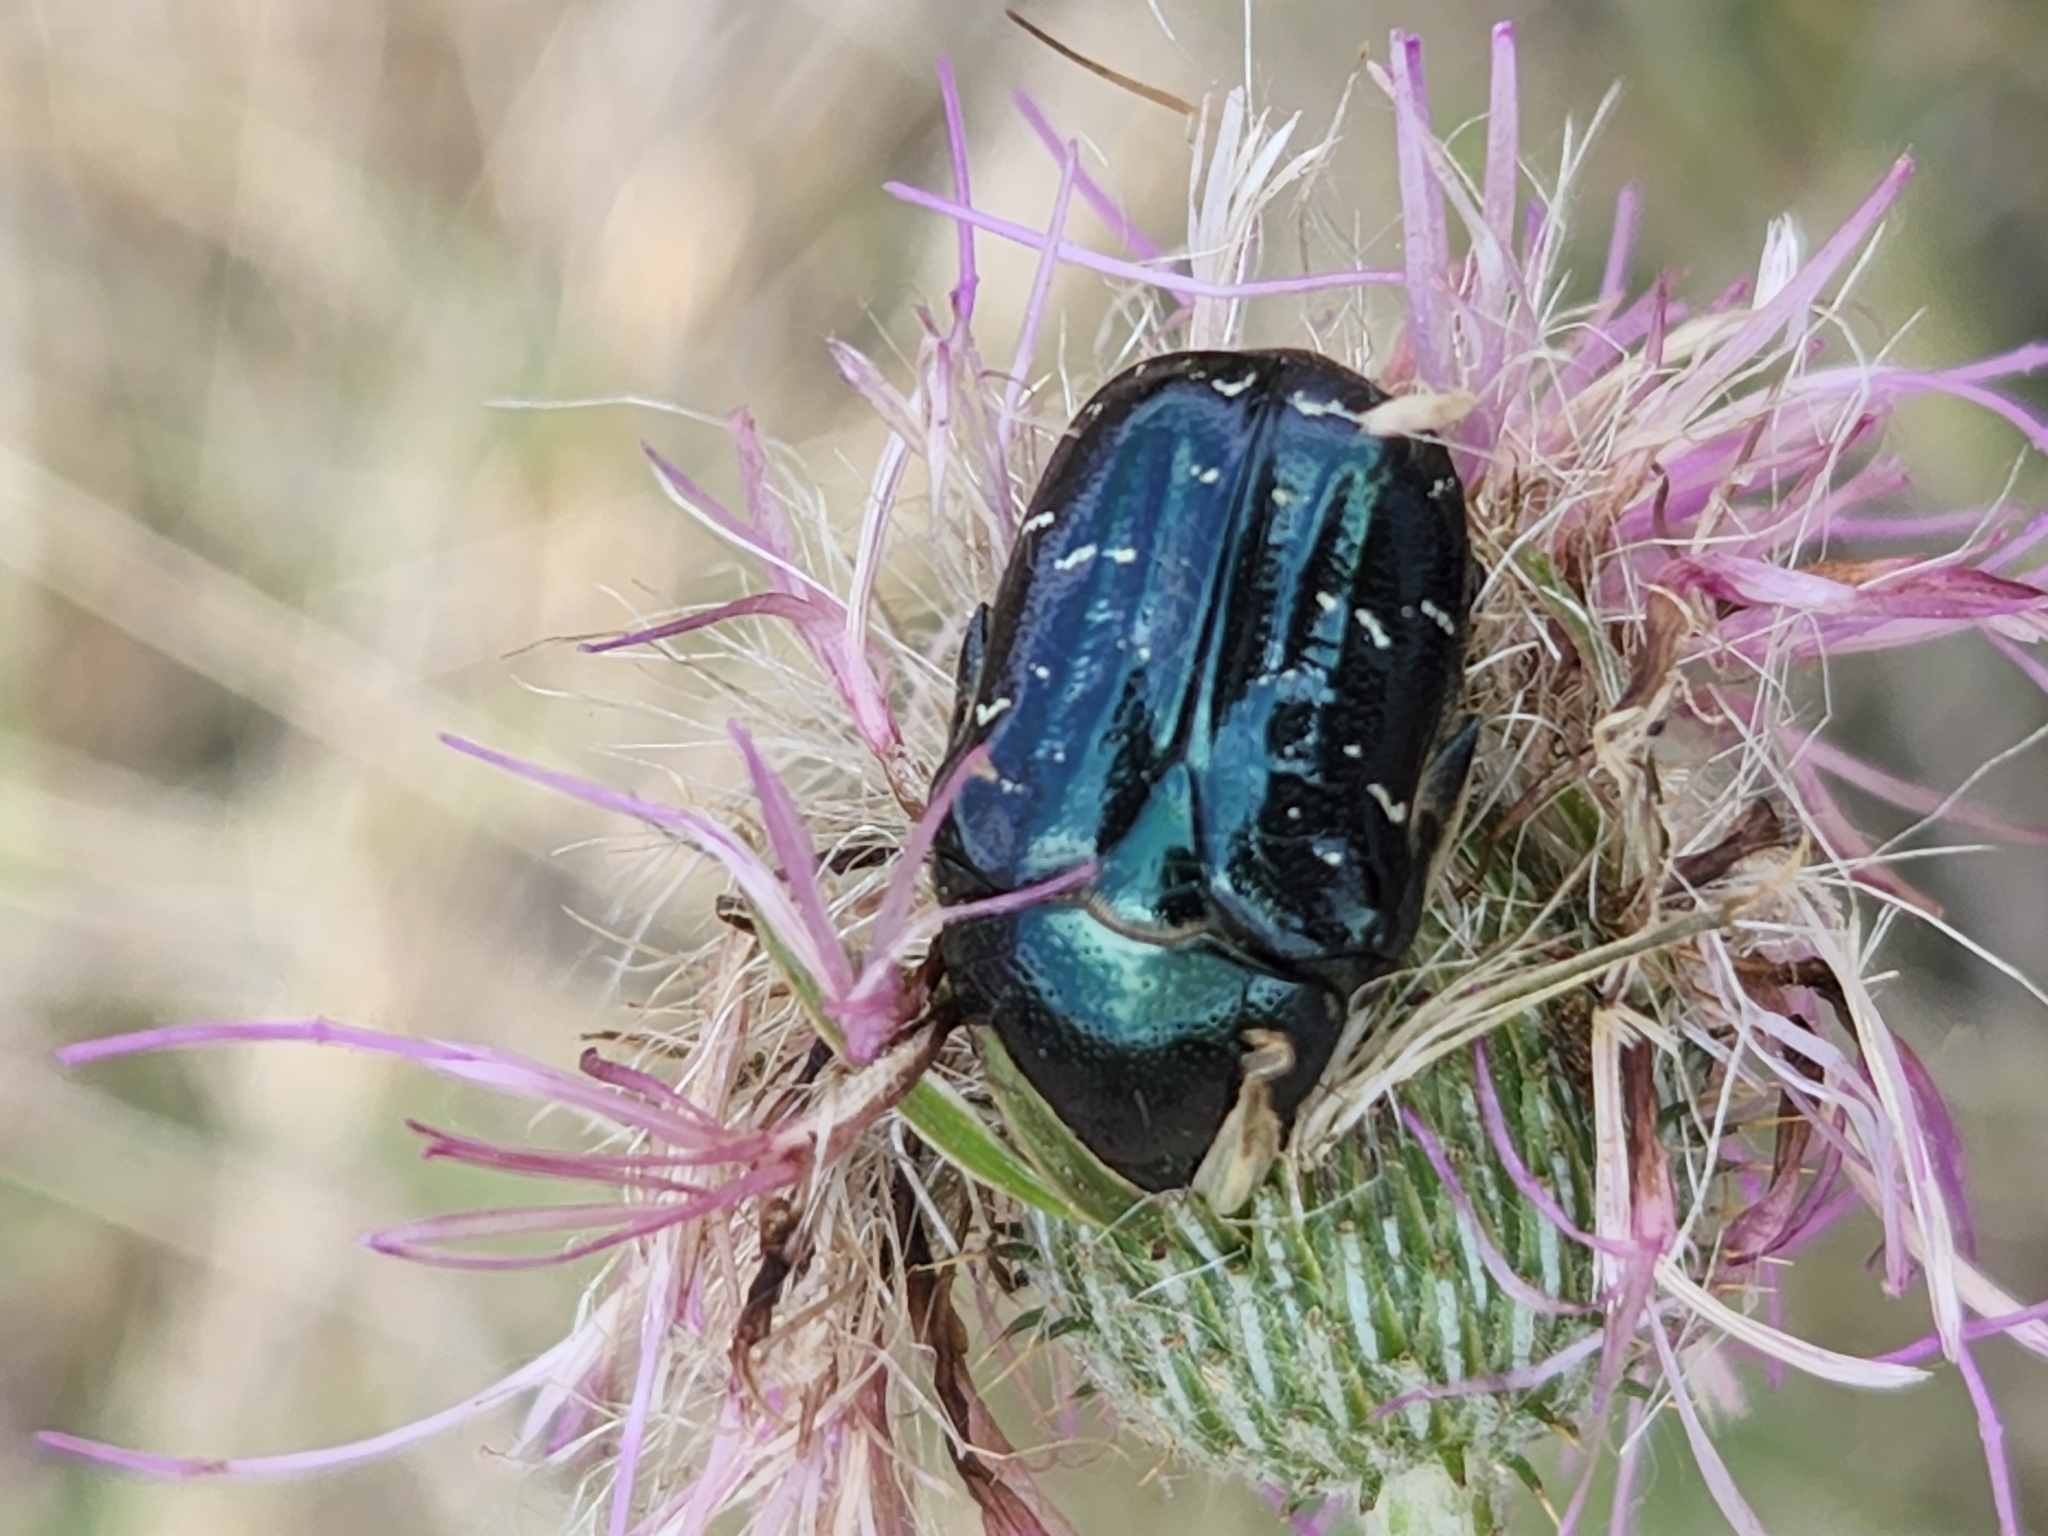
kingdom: Animalia
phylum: Arthropoda
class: Insecta
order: Coleoptera
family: Scarabaeidae
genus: Euphoria
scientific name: Euphoria sepulcralis
